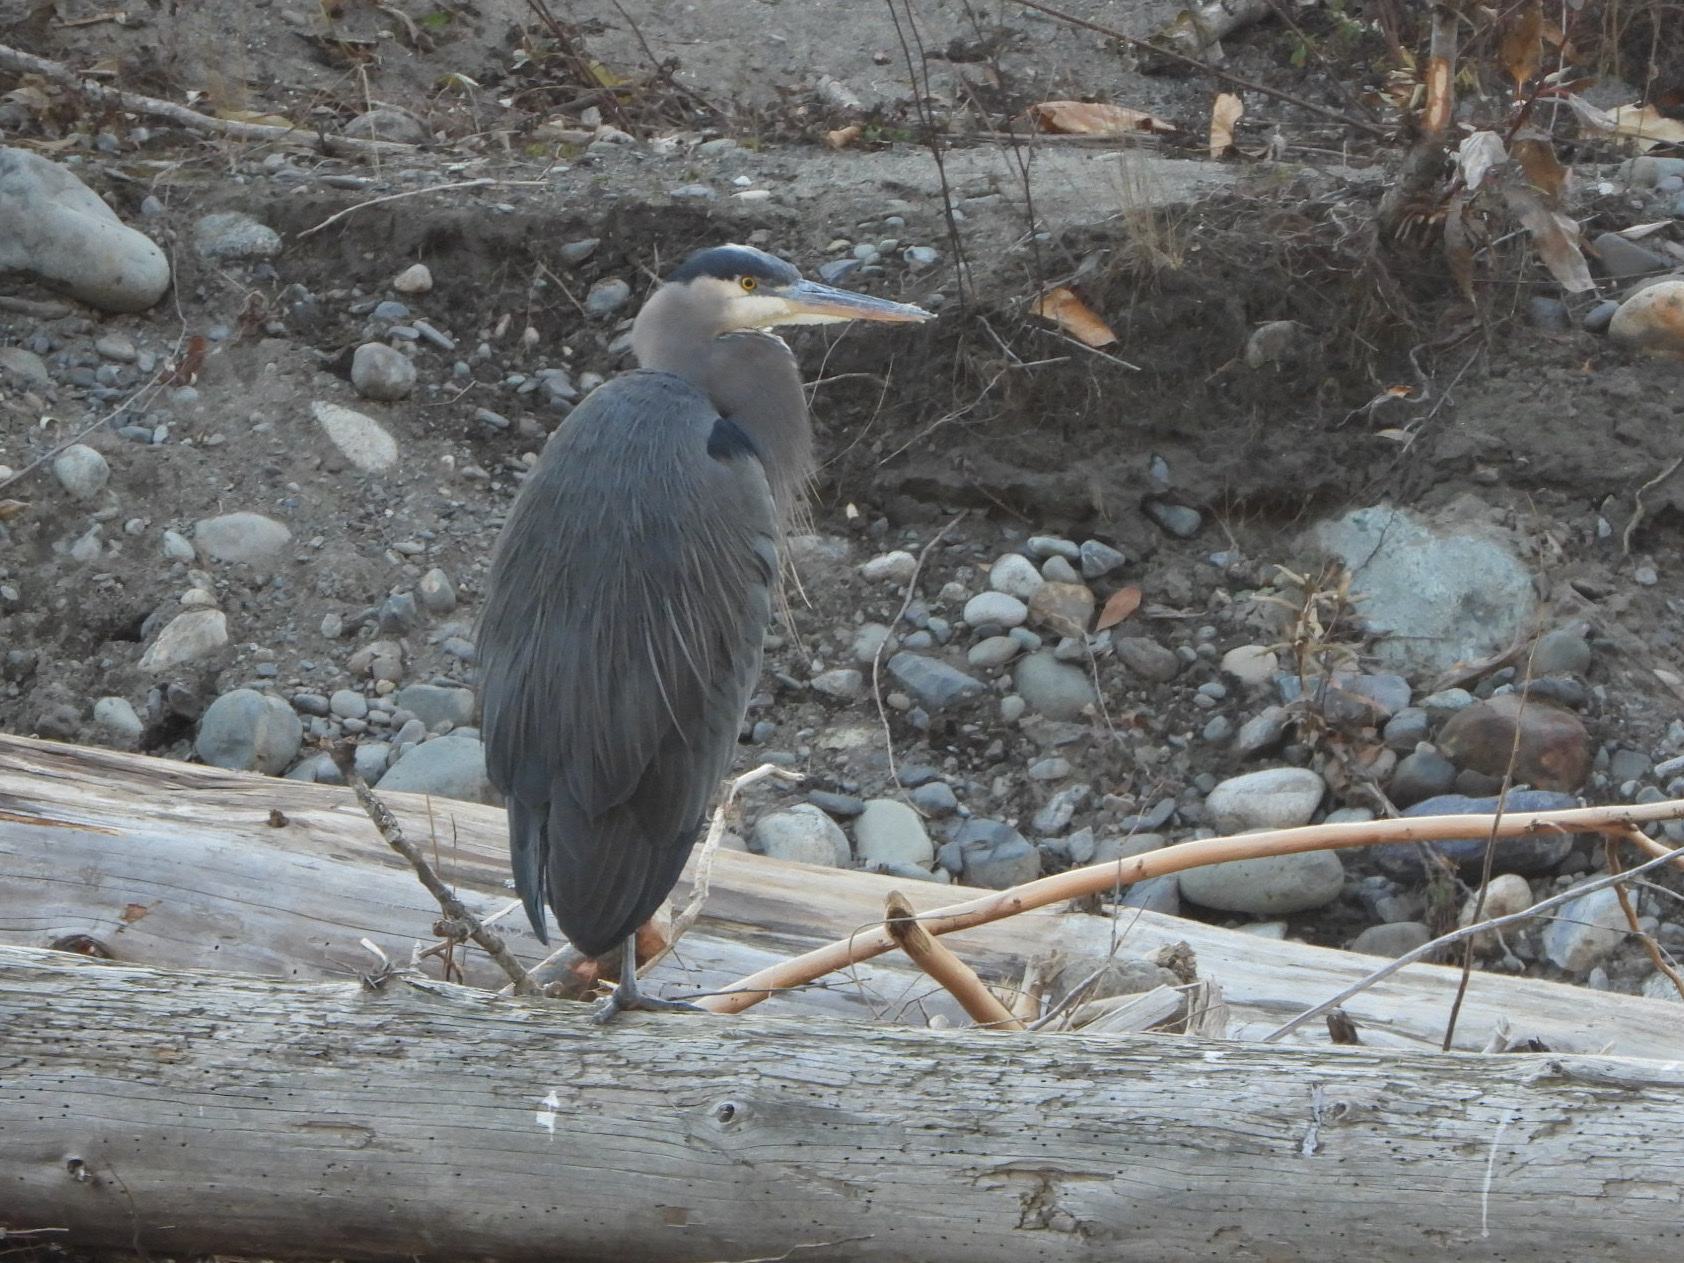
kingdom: Animalia
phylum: Chordata
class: Aves
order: Pelecaniformes
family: Ardeidae
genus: Ardea
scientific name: Ardea herodias
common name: Great blue heron
